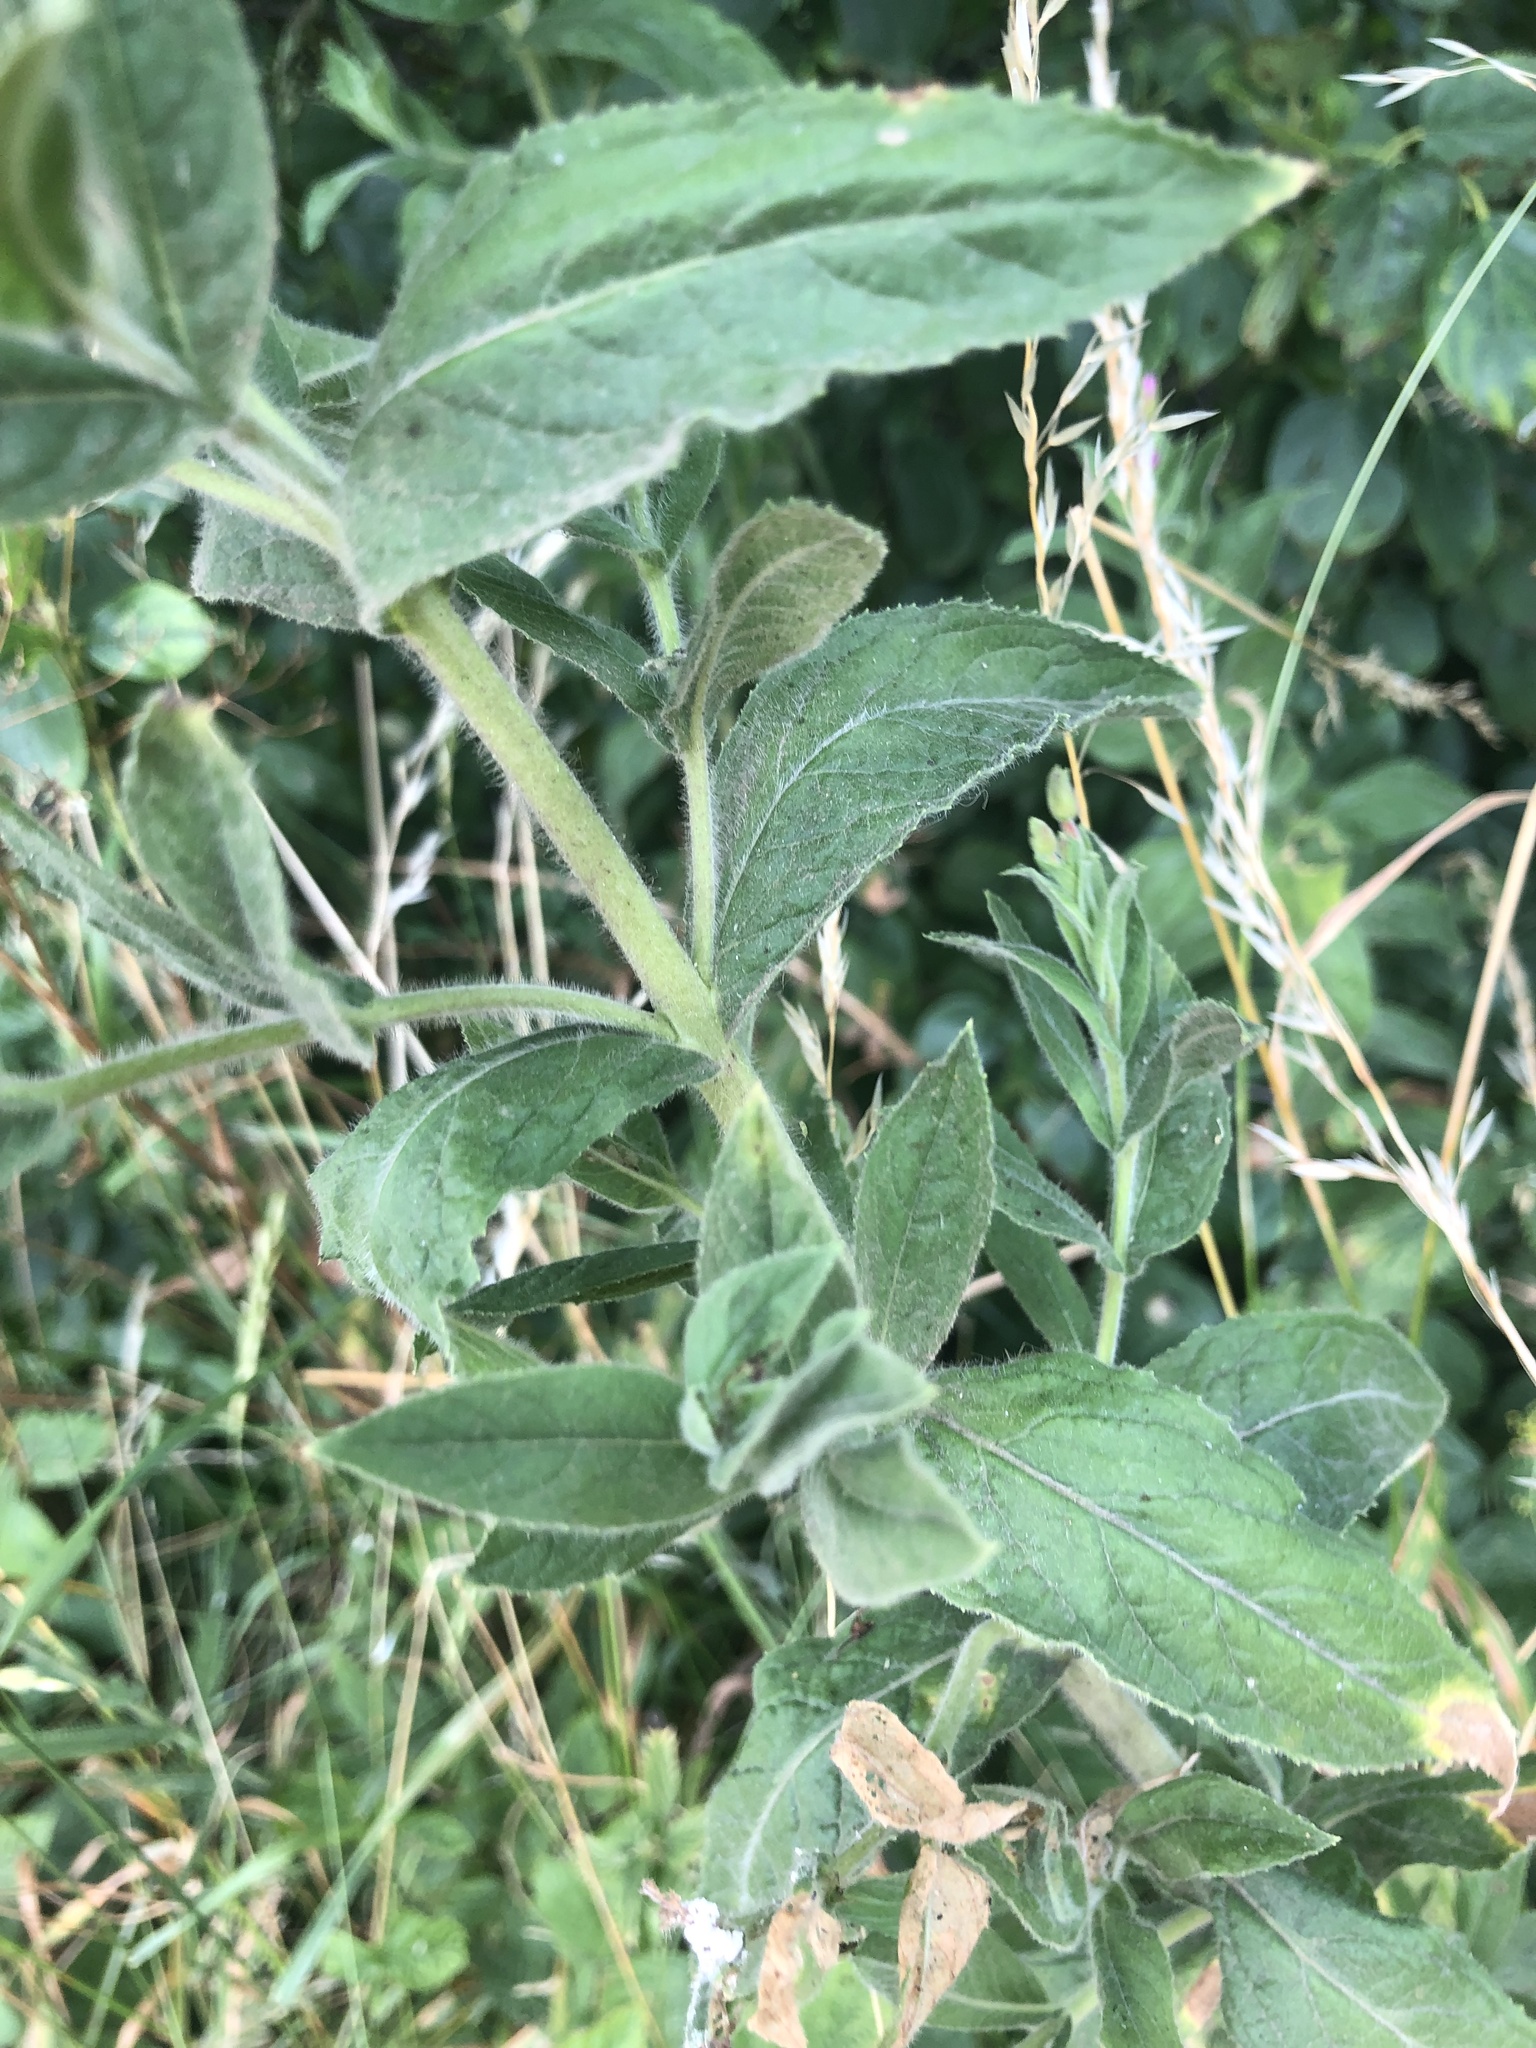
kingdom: Plantae
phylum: Tracheophyta
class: Magnoliopsida
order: Myrtales
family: Onagraceae
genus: Epilobium
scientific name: Epilobium hirsutum
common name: Great willowherb
